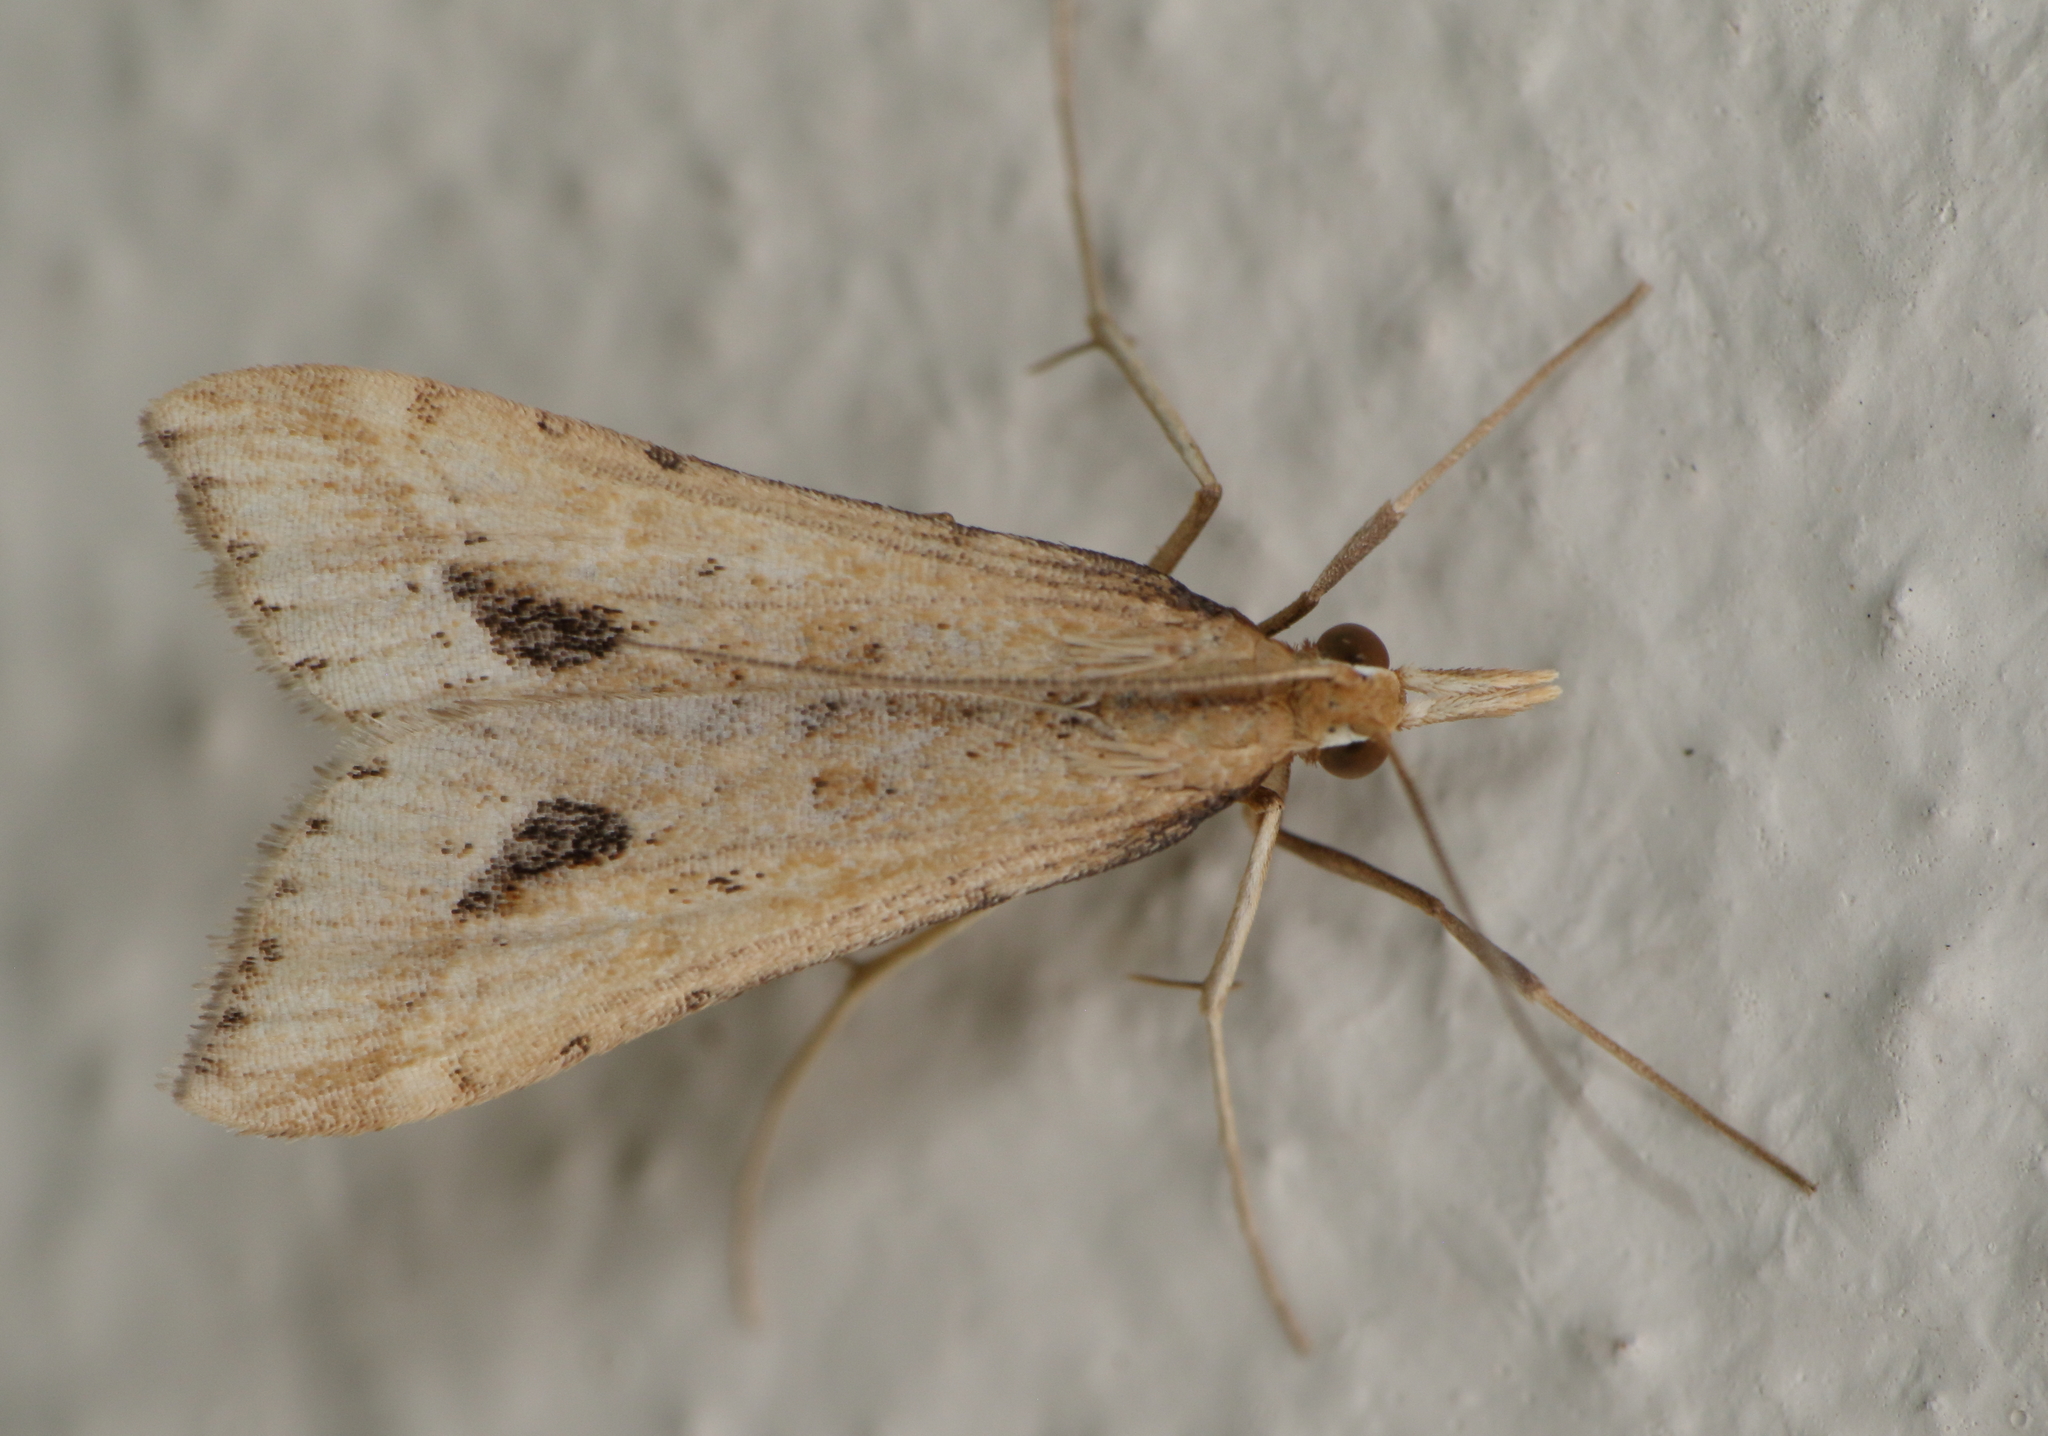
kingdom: Animalia
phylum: Arthropoda
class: Insecta
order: Lepidoptera
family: Crambidae
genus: Diasemia
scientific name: Diasemia monostigma
